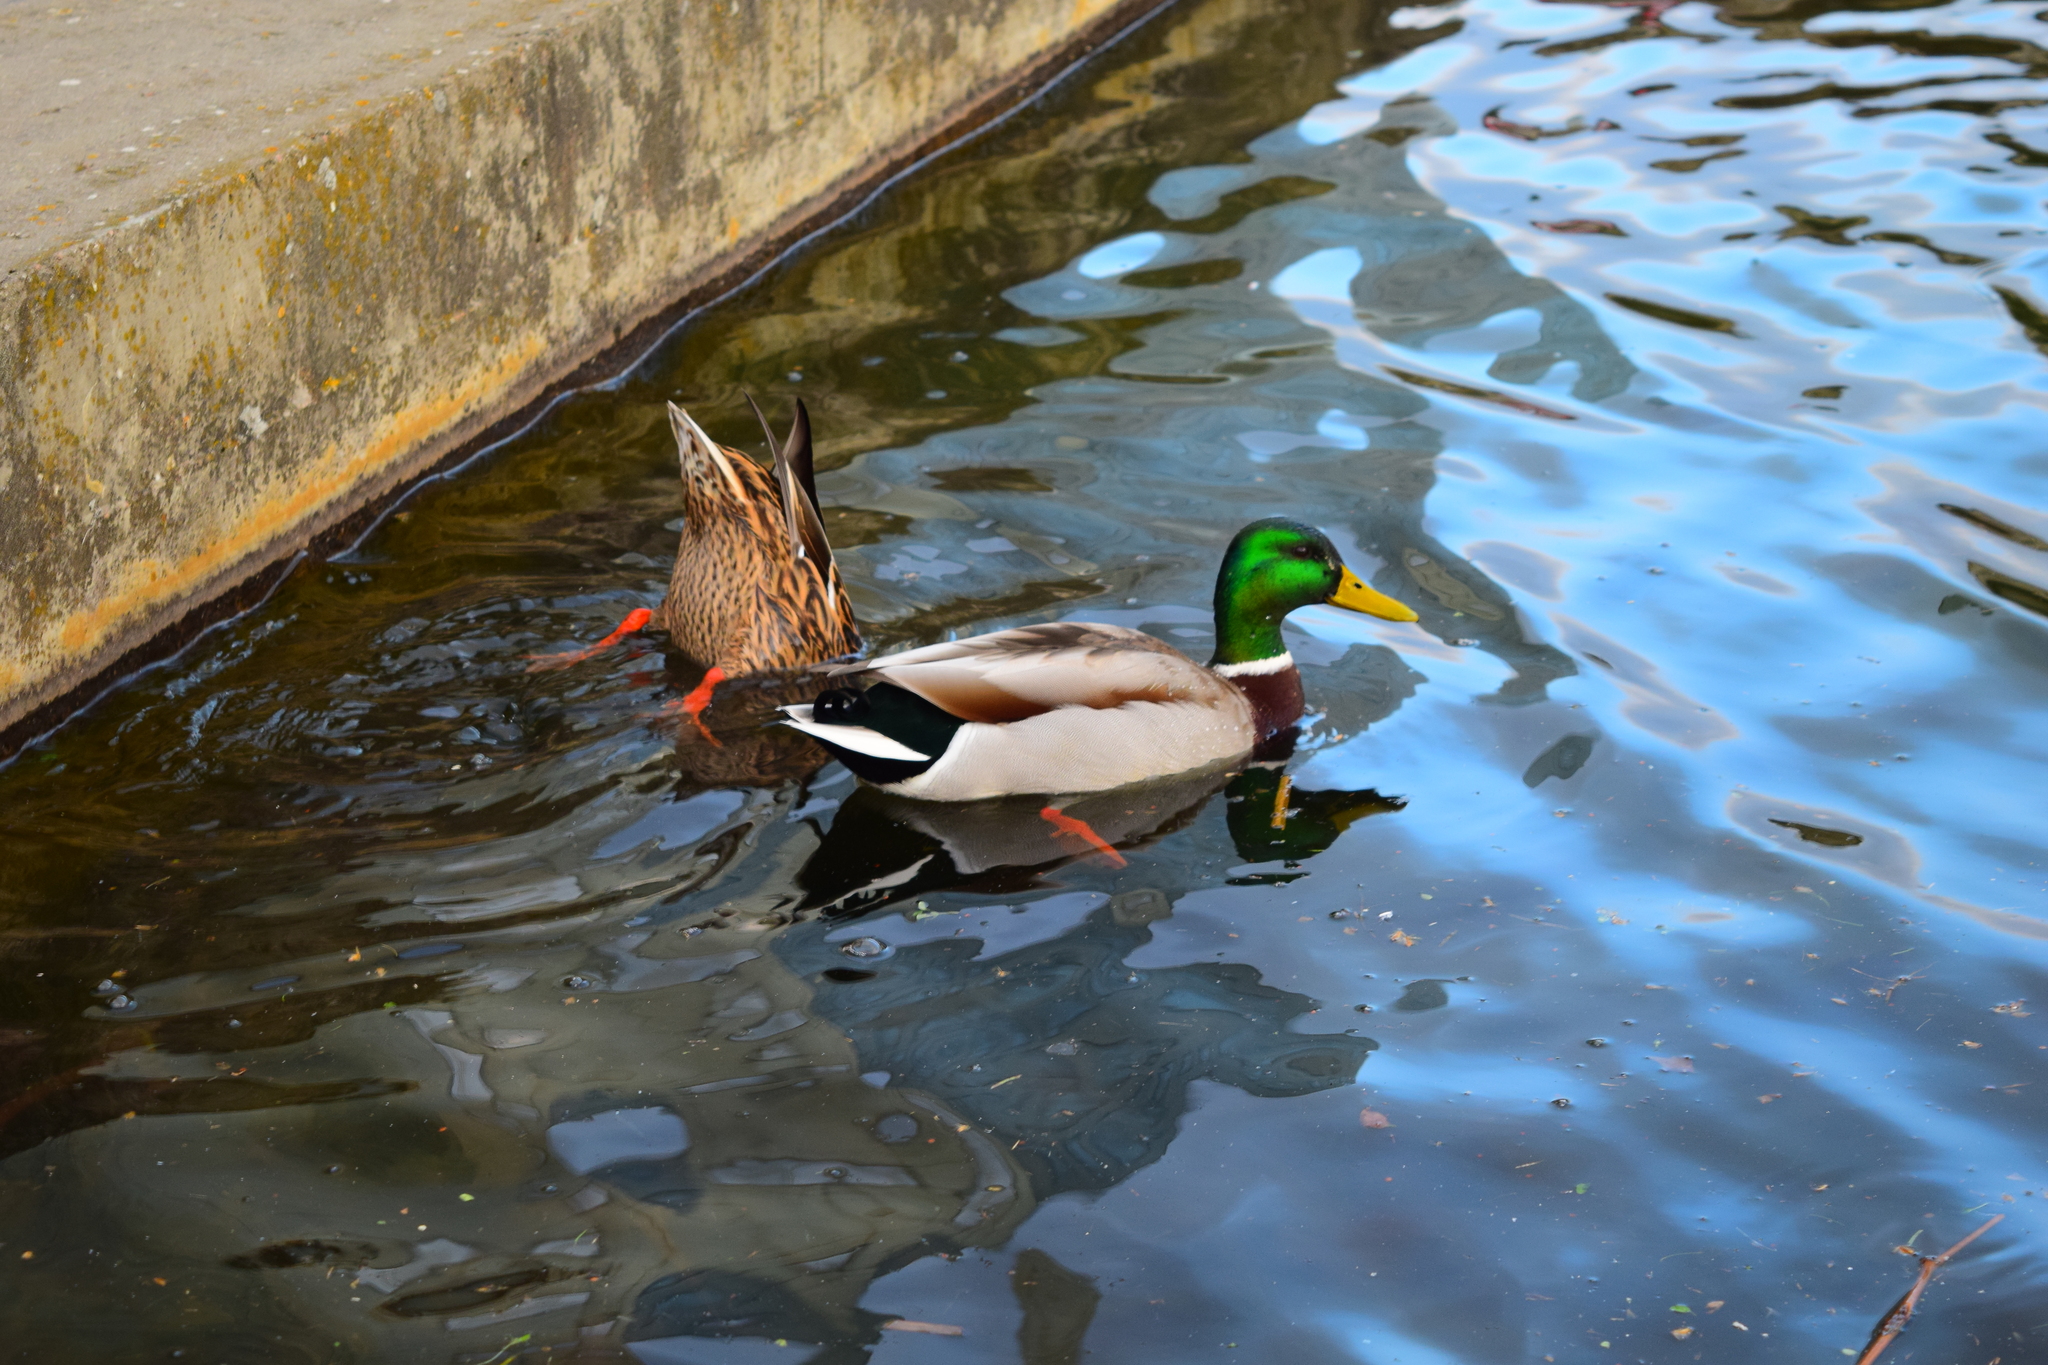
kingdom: Animalia
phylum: Chordata
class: Aves
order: Anseriformes
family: Anatidae
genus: Anas
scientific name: Anas platyrhynchos
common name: Mallard
